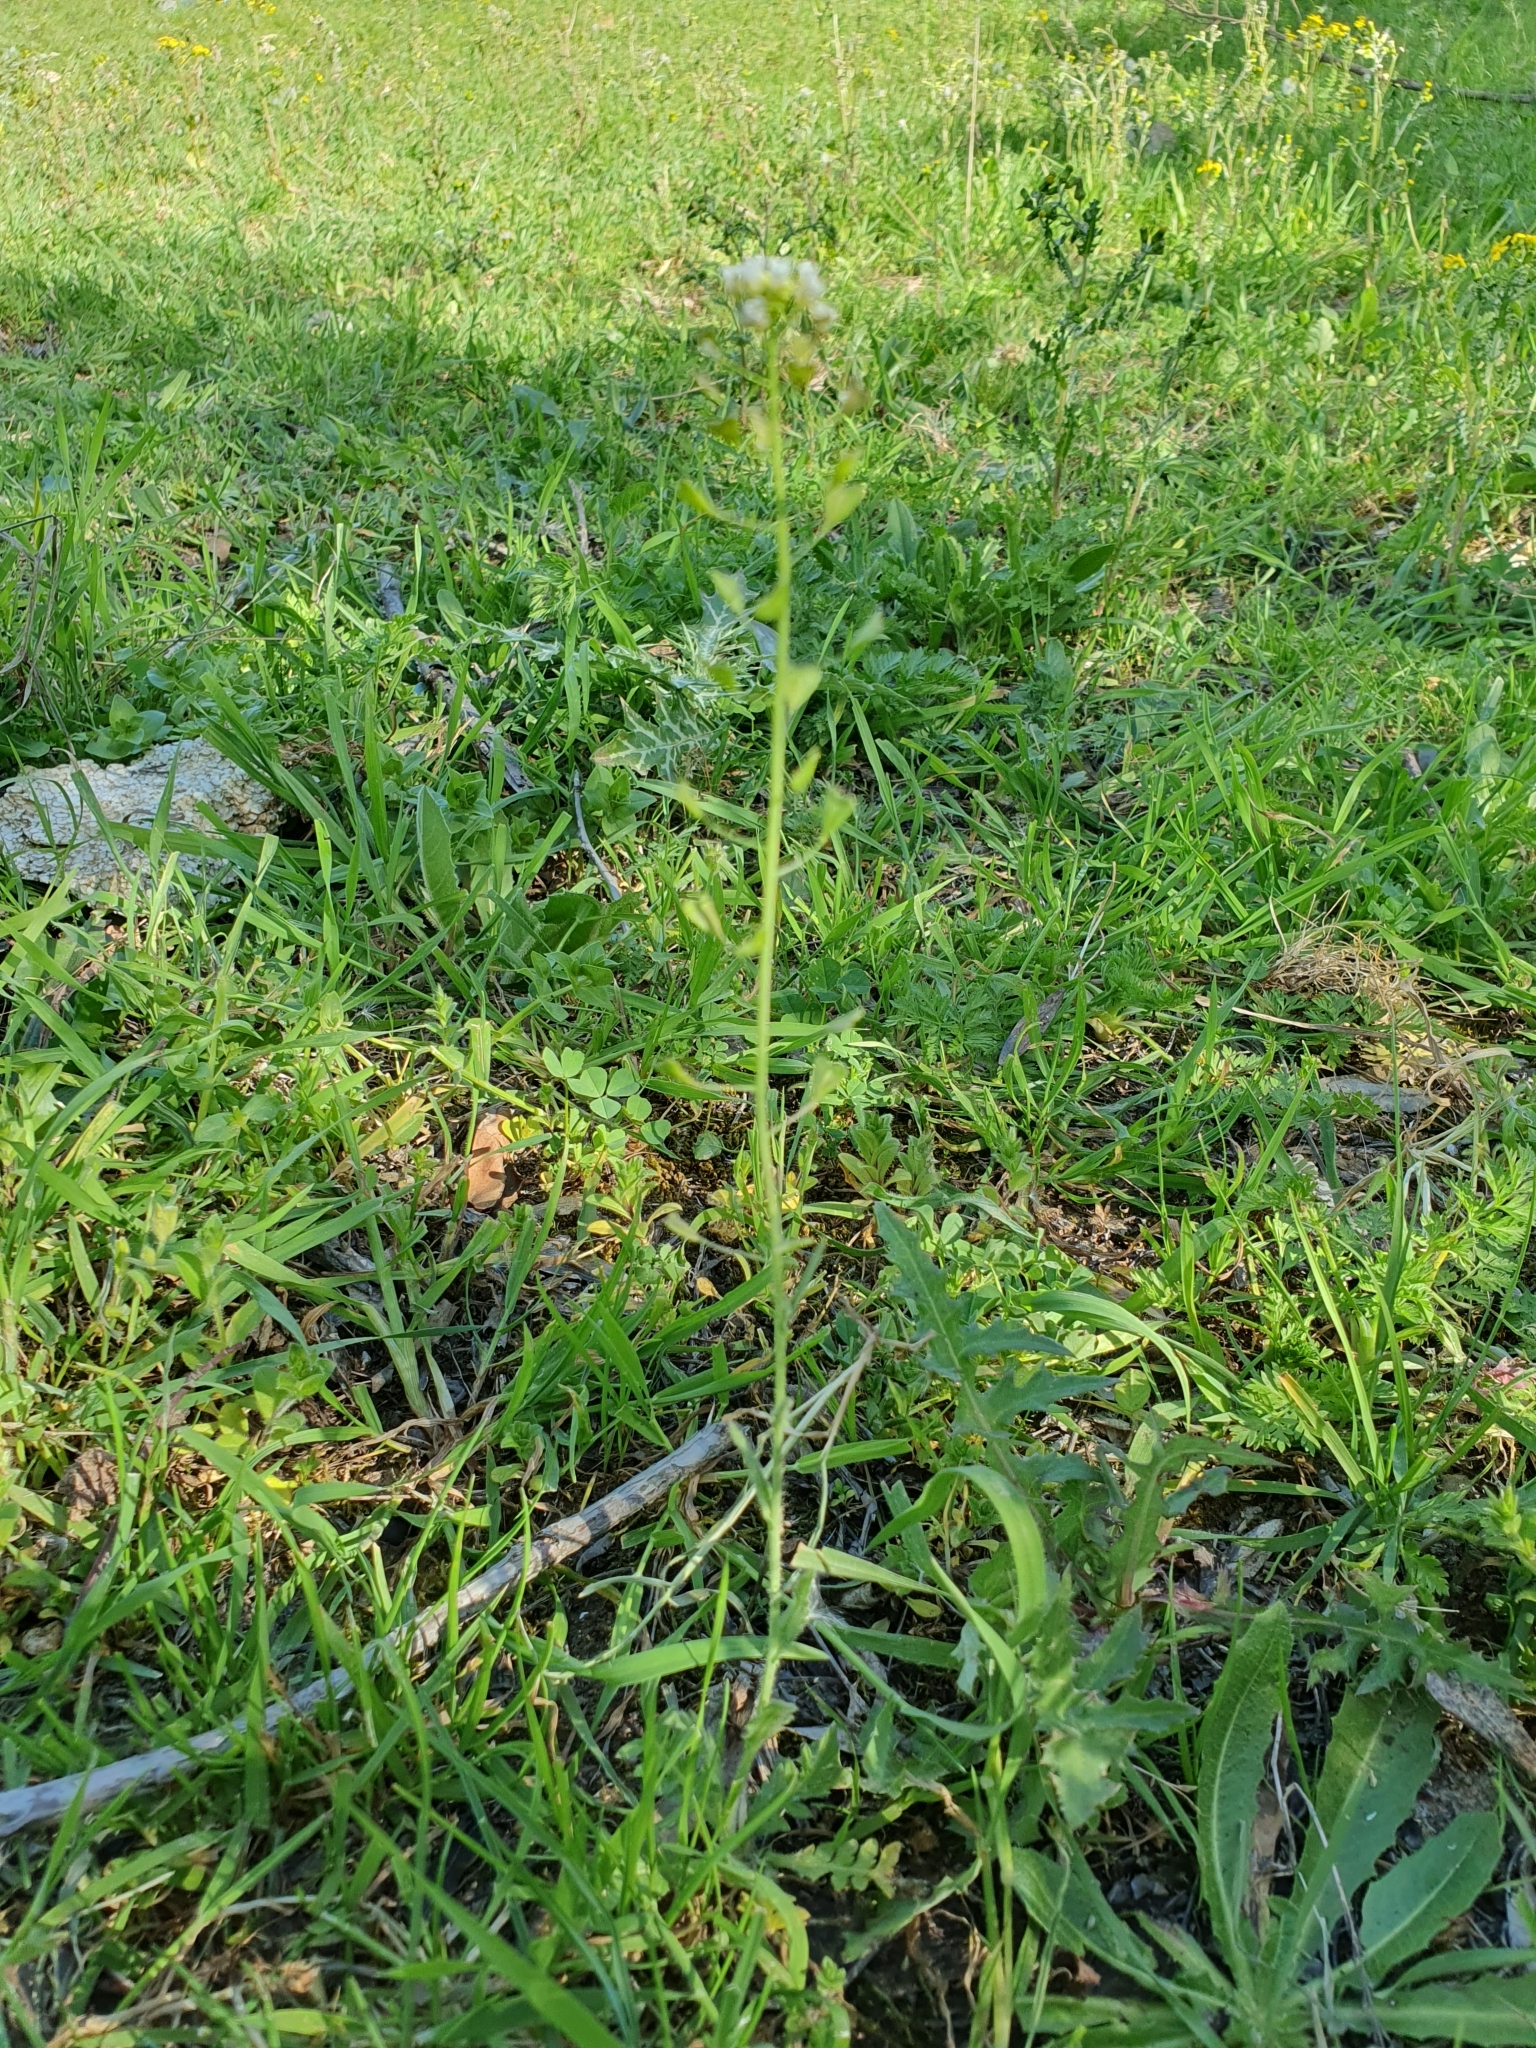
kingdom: Plantae
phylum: Tracheophyta
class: Magnoliopsida
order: Brassicales
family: Brassicaceae
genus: Capsella
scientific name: Capsella bursa-pastoris
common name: Shepherd's purse
